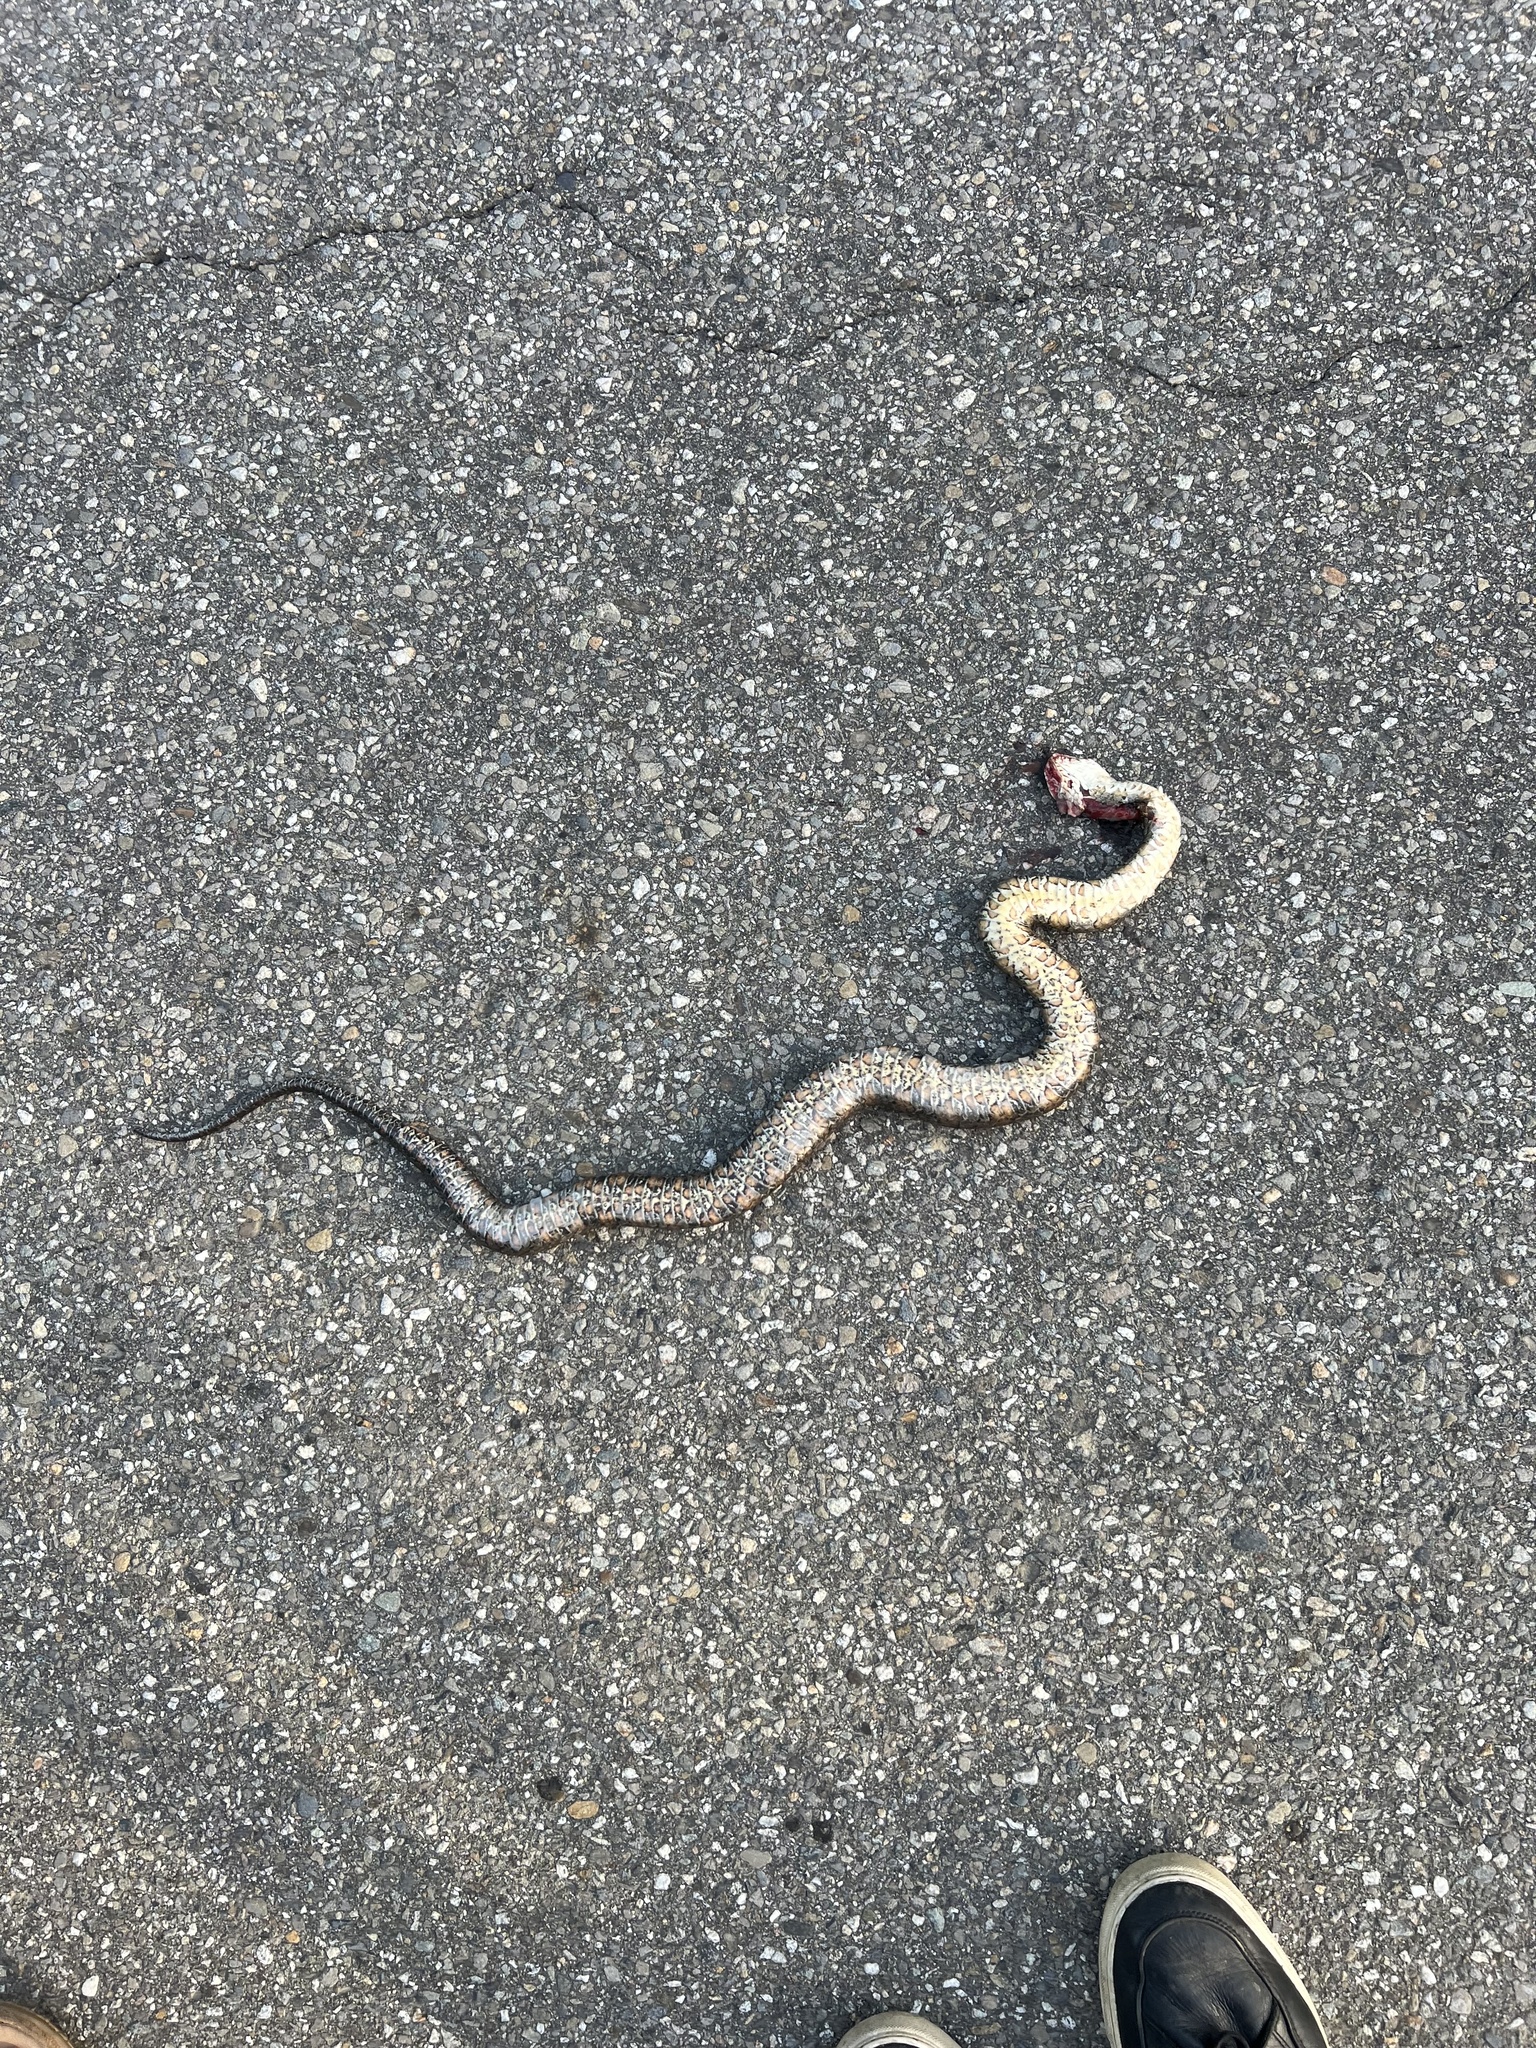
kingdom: Animalia
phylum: Chordata
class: Squamata
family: Colubridae
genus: Nerodia
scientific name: Nerodia sipedon
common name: Northern water snake
